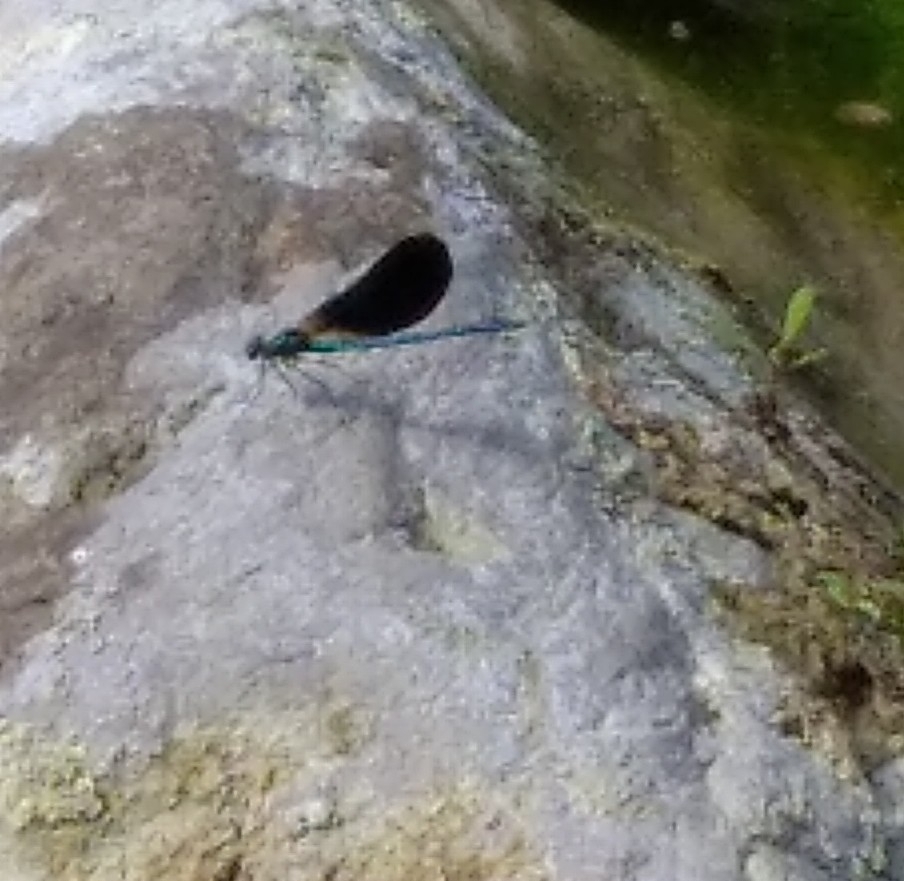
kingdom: Animalia
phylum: Arthropoda
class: Insecta
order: Odonata
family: Calopterygidae
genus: Calopteryx
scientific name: Calopteryx virgo
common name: Beautiful demoiselle
